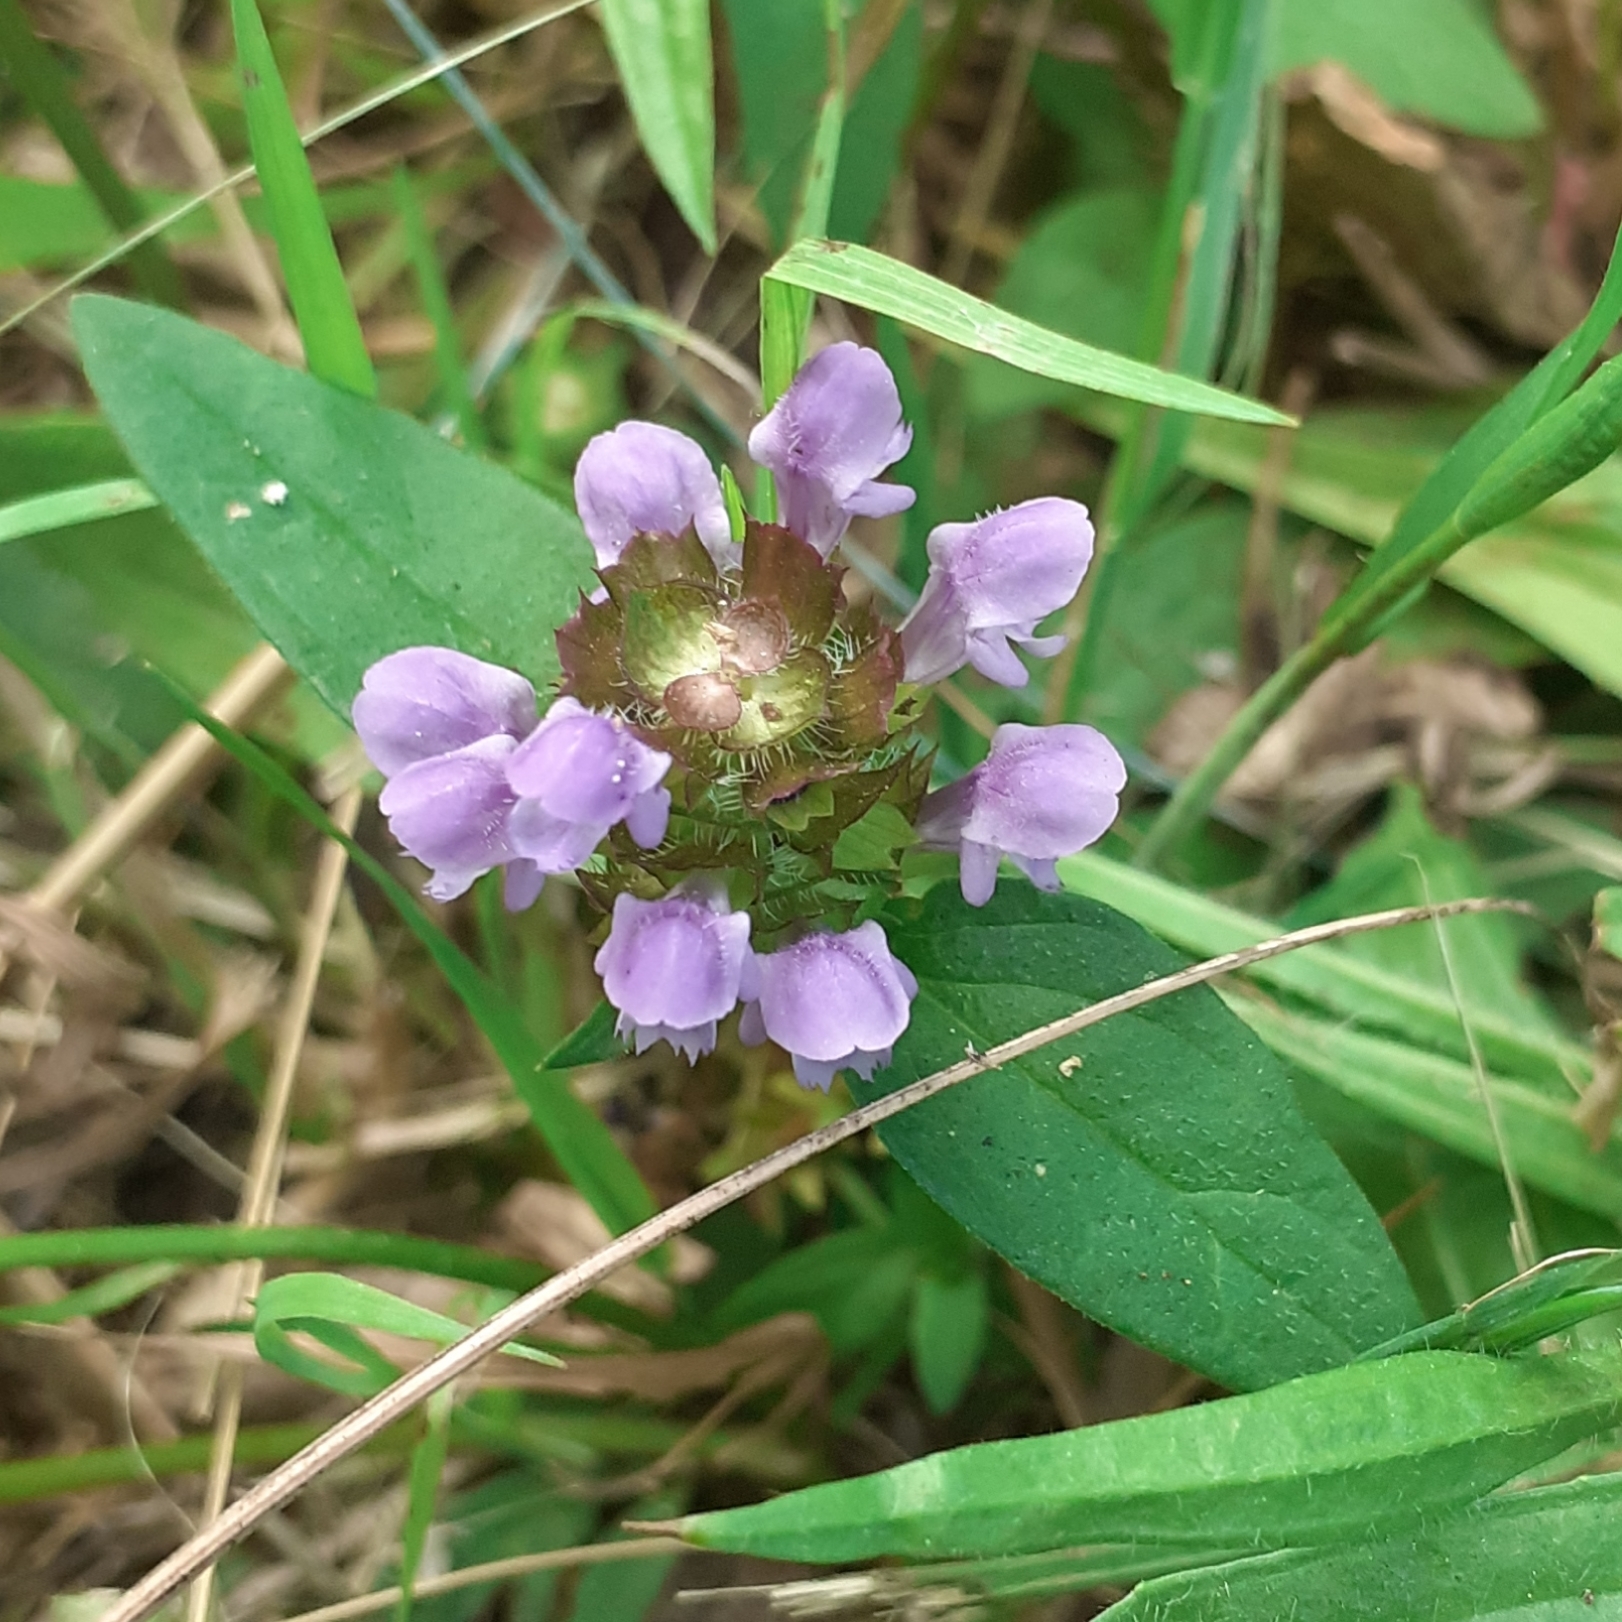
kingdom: Plantae
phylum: Tracheophyta
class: Magnoliopsida
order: Lamiales
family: Lamiaceae
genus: Prunella
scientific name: Prunella vulgaris
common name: Heal-all
